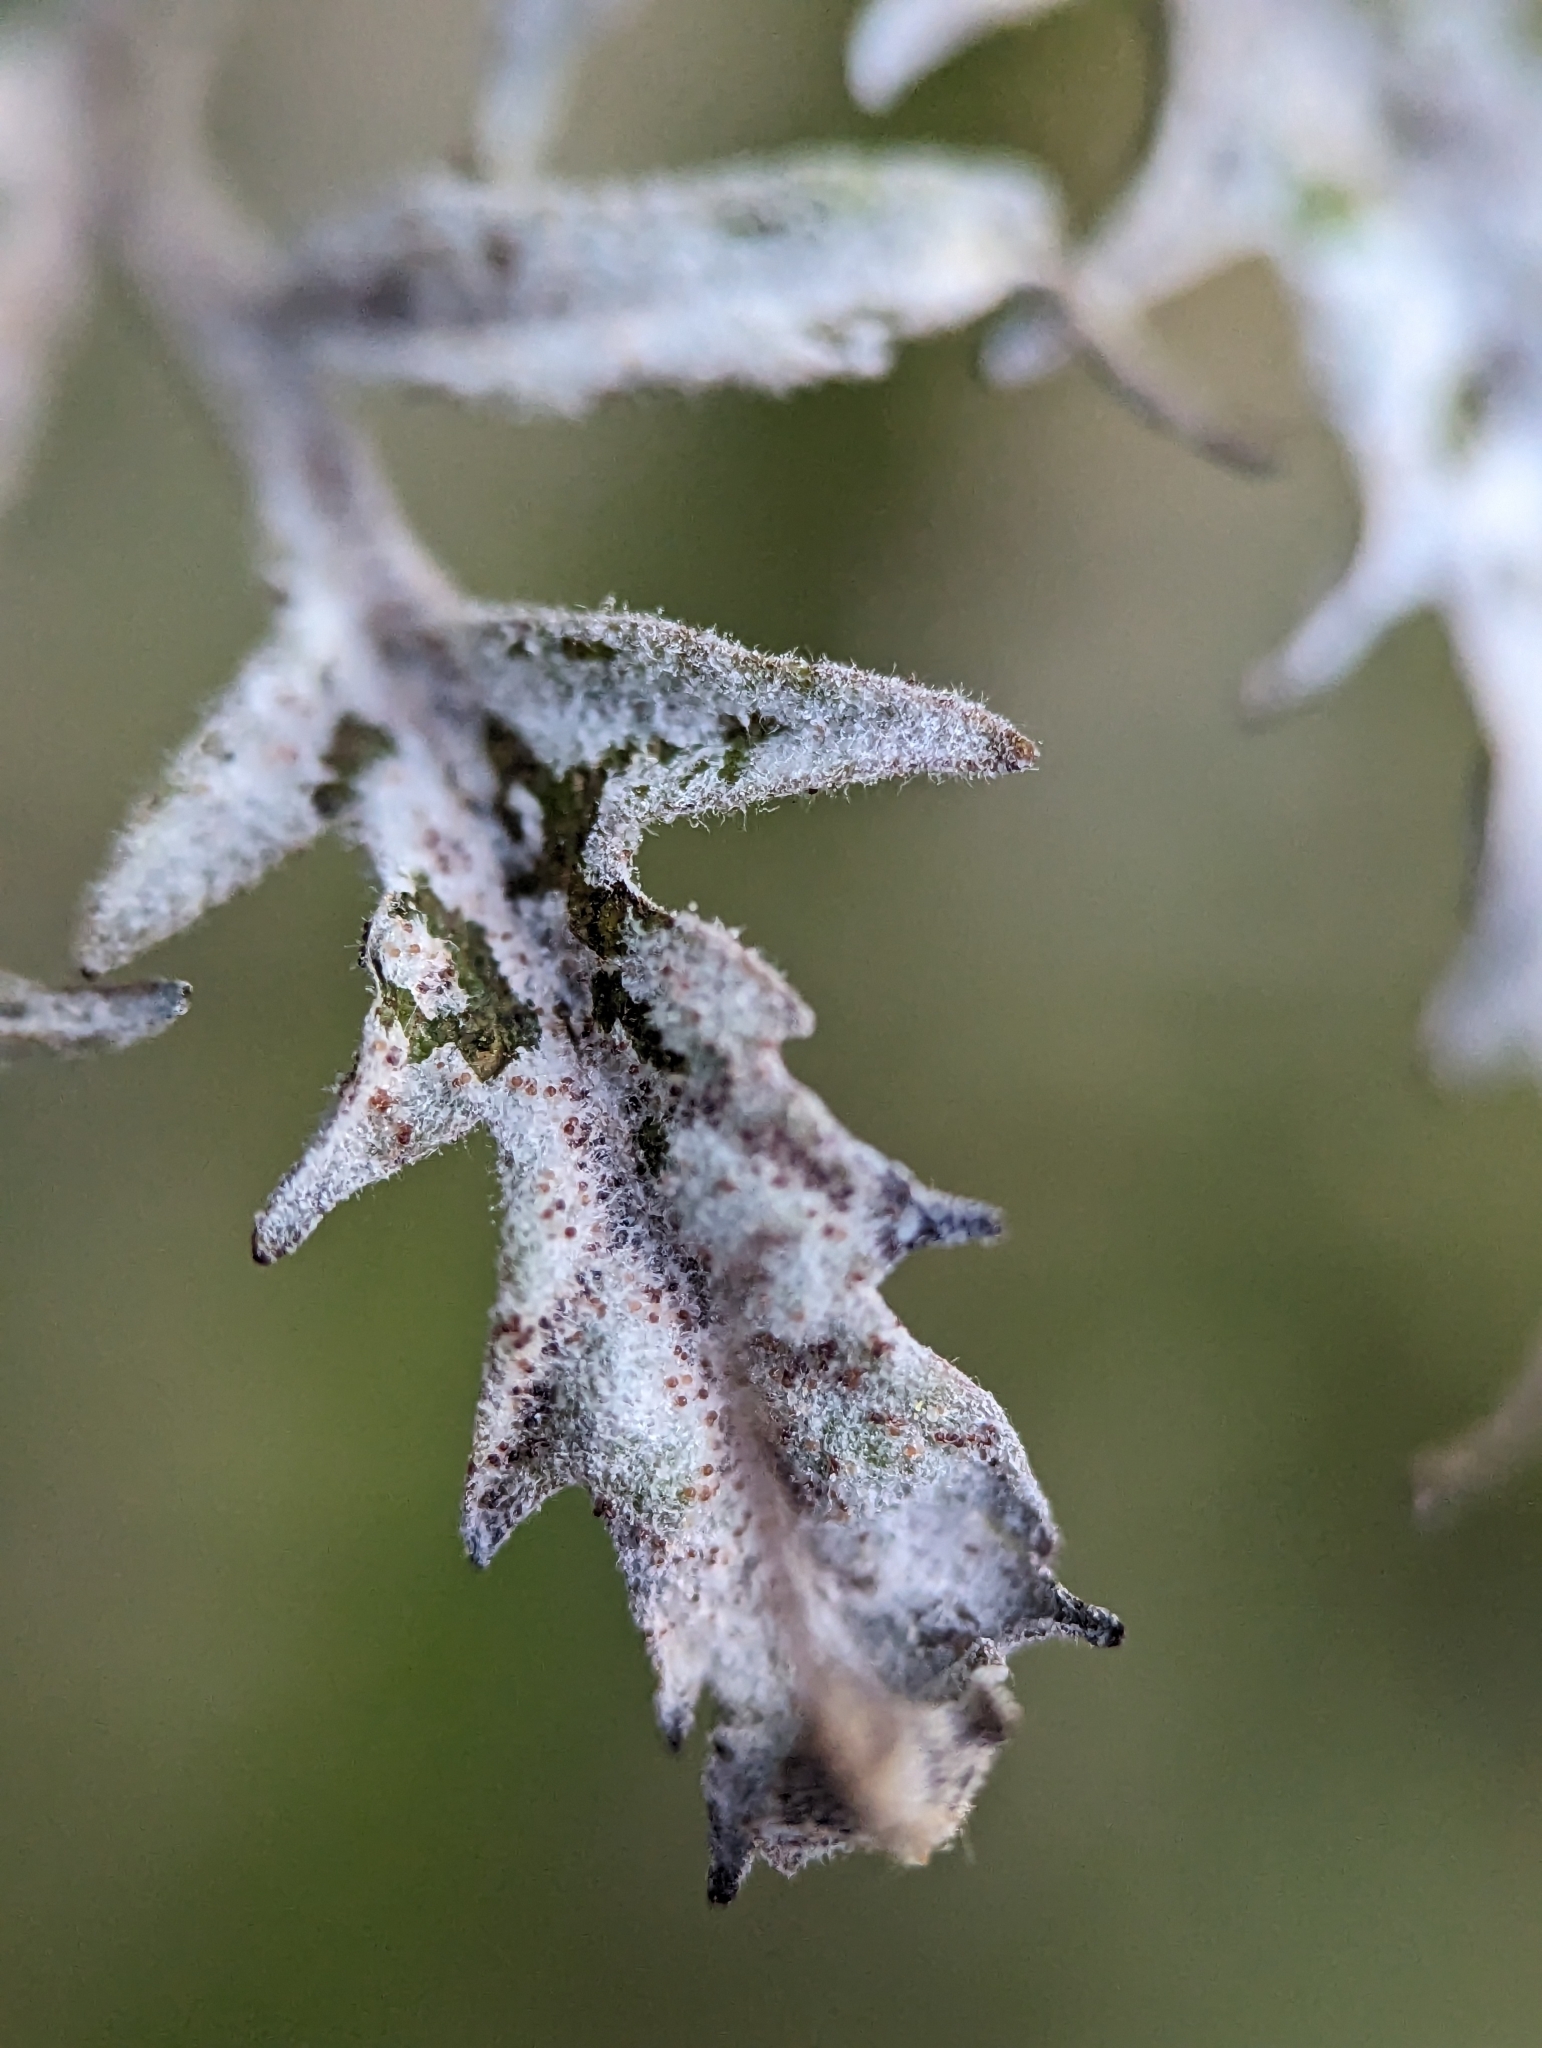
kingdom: Fungi
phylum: Ascomycota
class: Leotiomycetes
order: Helotiales
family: Erysiphaceae
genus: Podosphaera
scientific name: Podosphaera pruinosa
